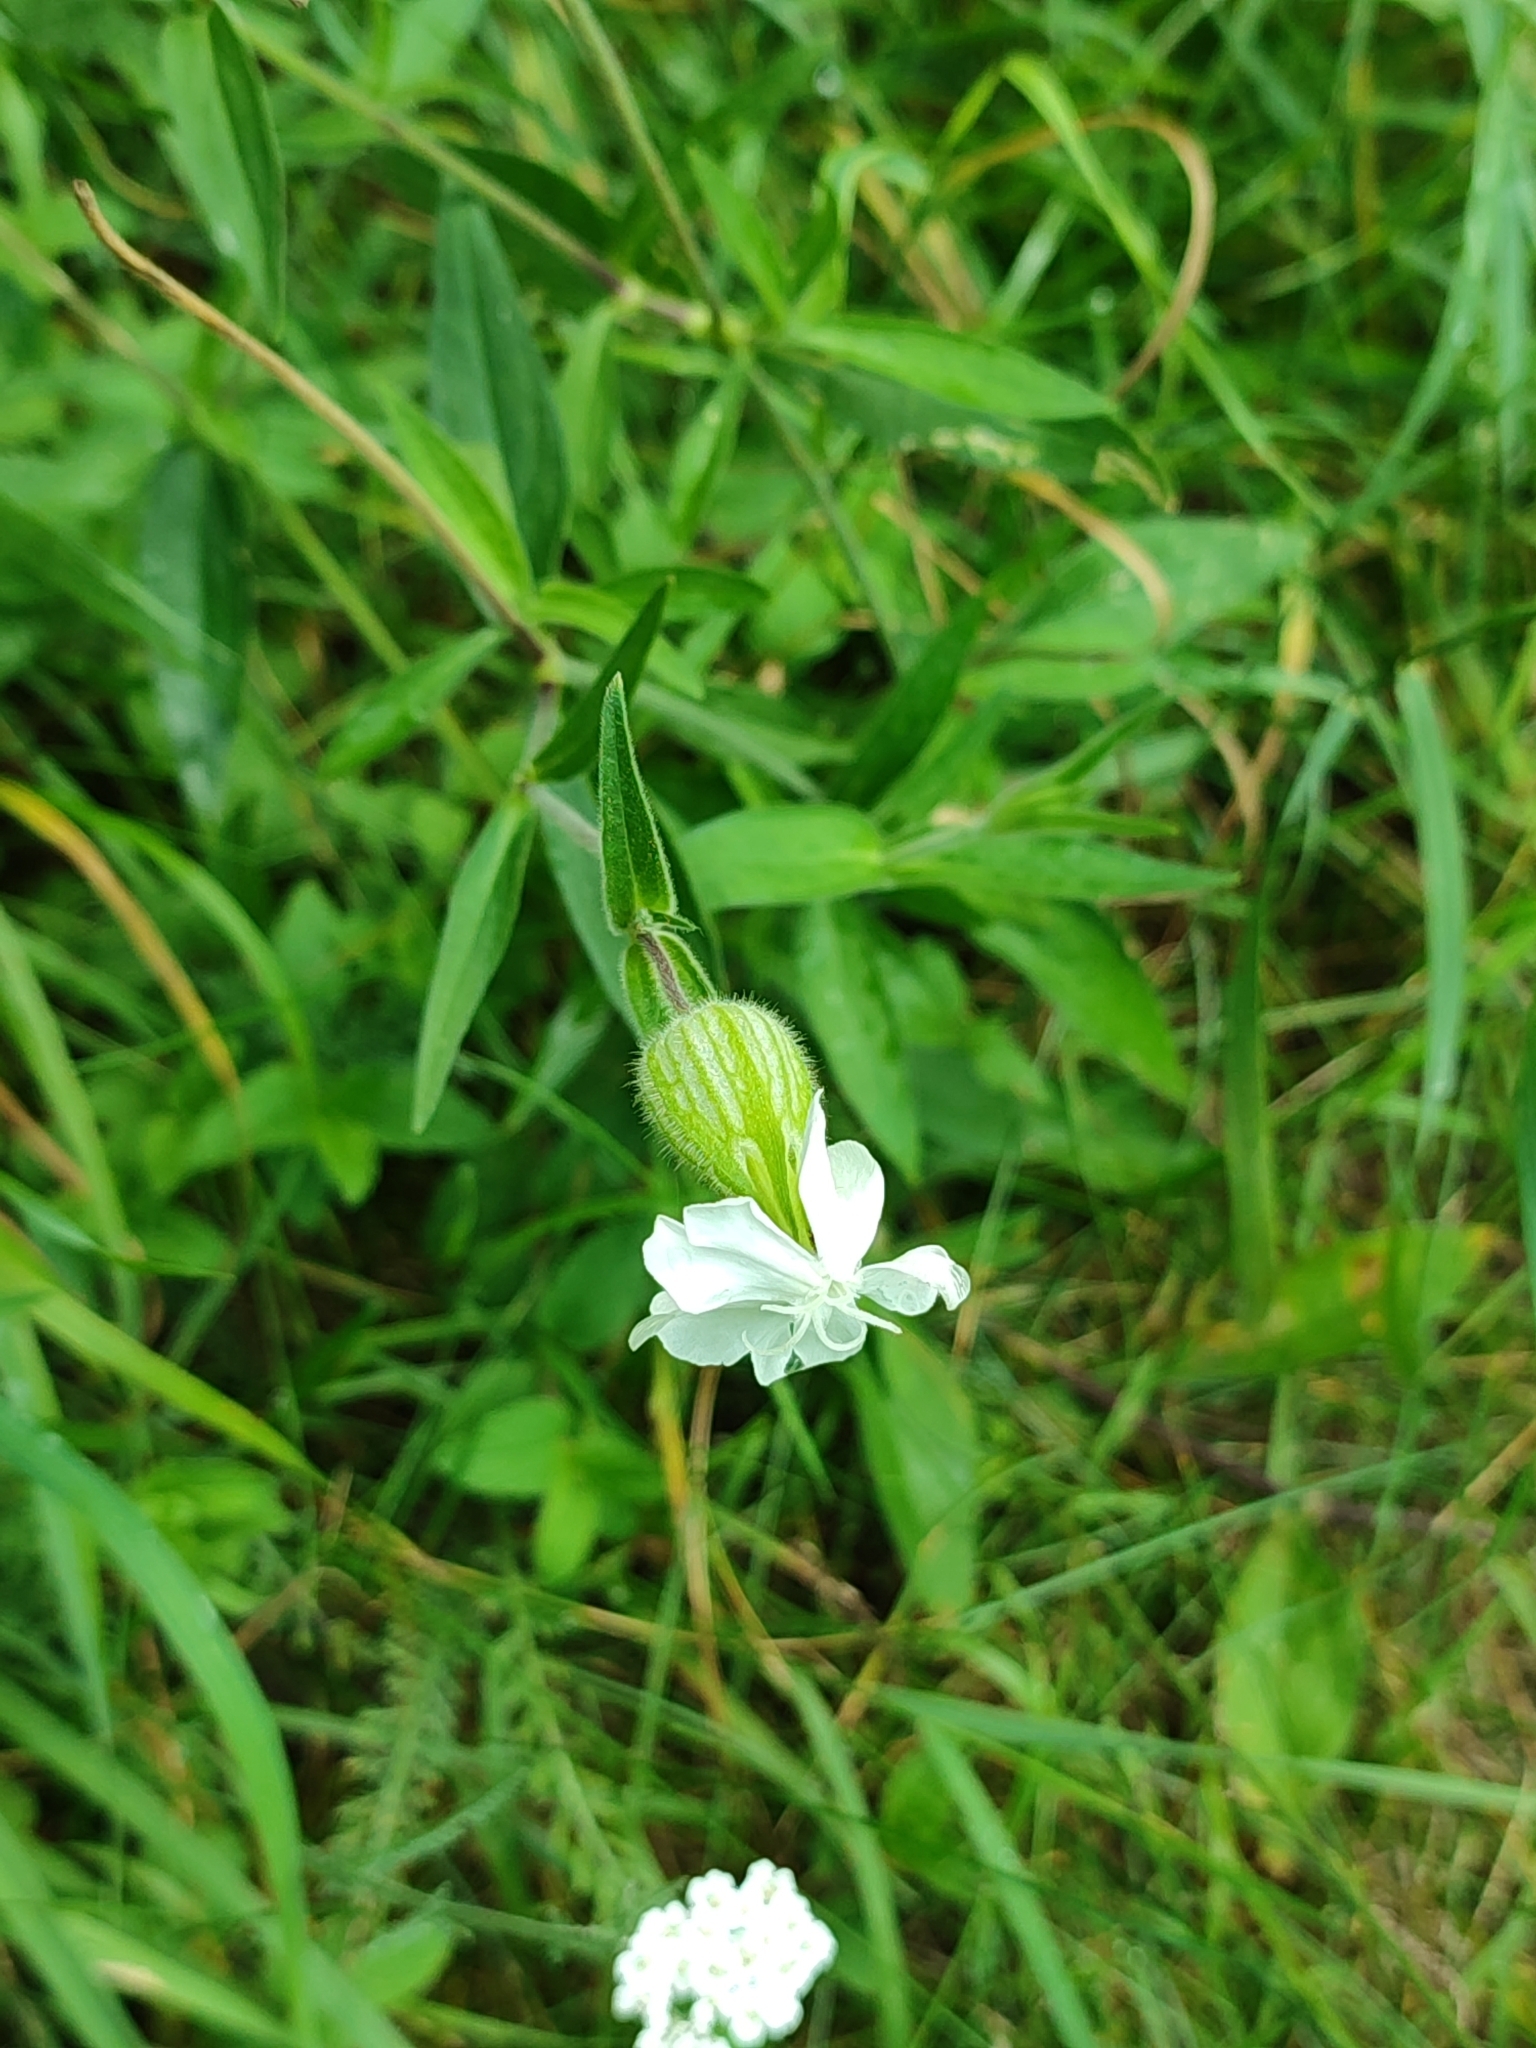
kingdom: Plantae
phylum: Tracheophyta
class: Magnoliopsida
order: Caryophyllales
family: Caryophyllaceae
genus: Silene
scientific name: Silene latifolia
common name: White campion
